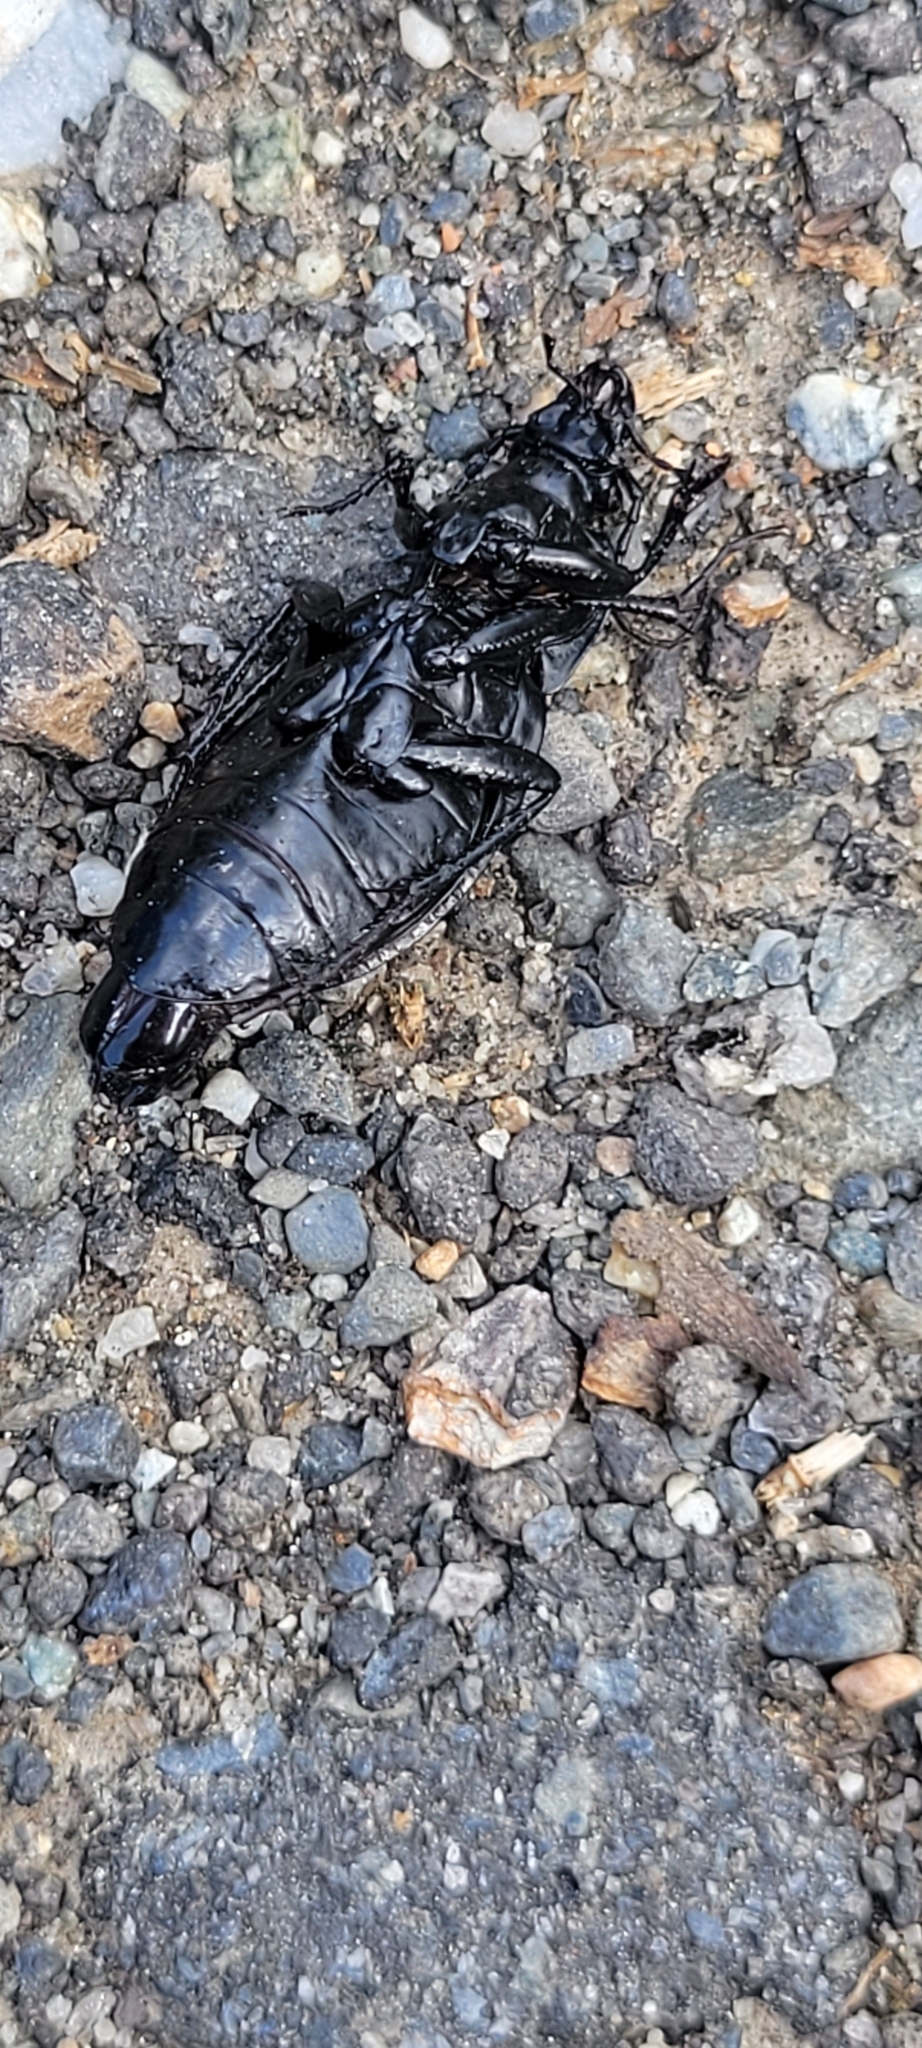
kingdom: Animalia
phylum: Arthropoda
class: Insecta
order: Coleoptera
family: Carabidae
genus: Carabus
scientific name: Carabus nemoralis
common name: European ground beetle
